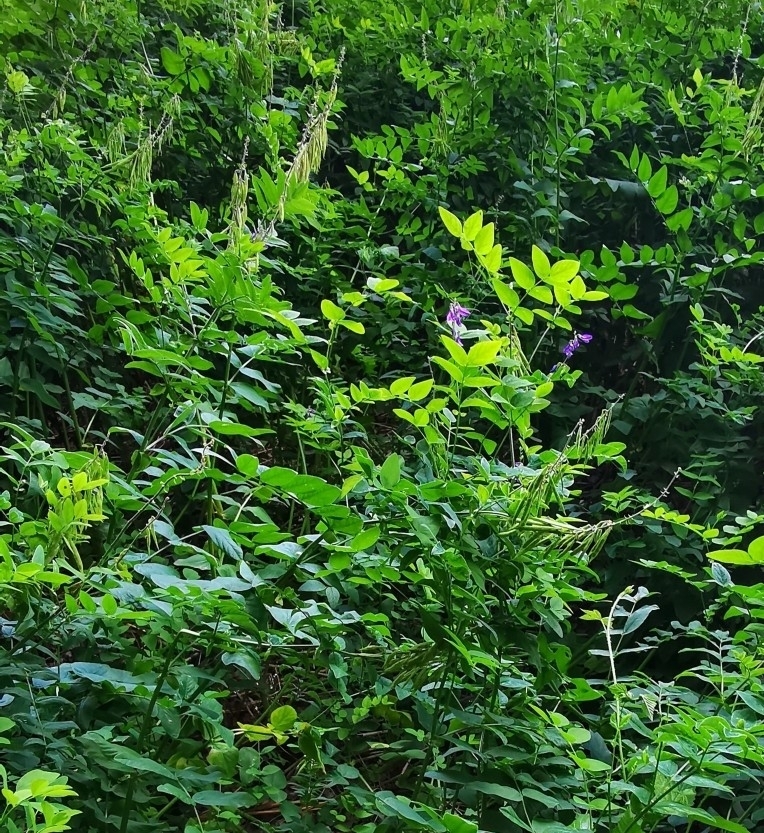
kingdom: Plantae
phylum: Tracheophyta
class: Magnoliopsida
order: Fabales
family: Fabaceae
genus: Galega
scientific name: Galega orientalis
